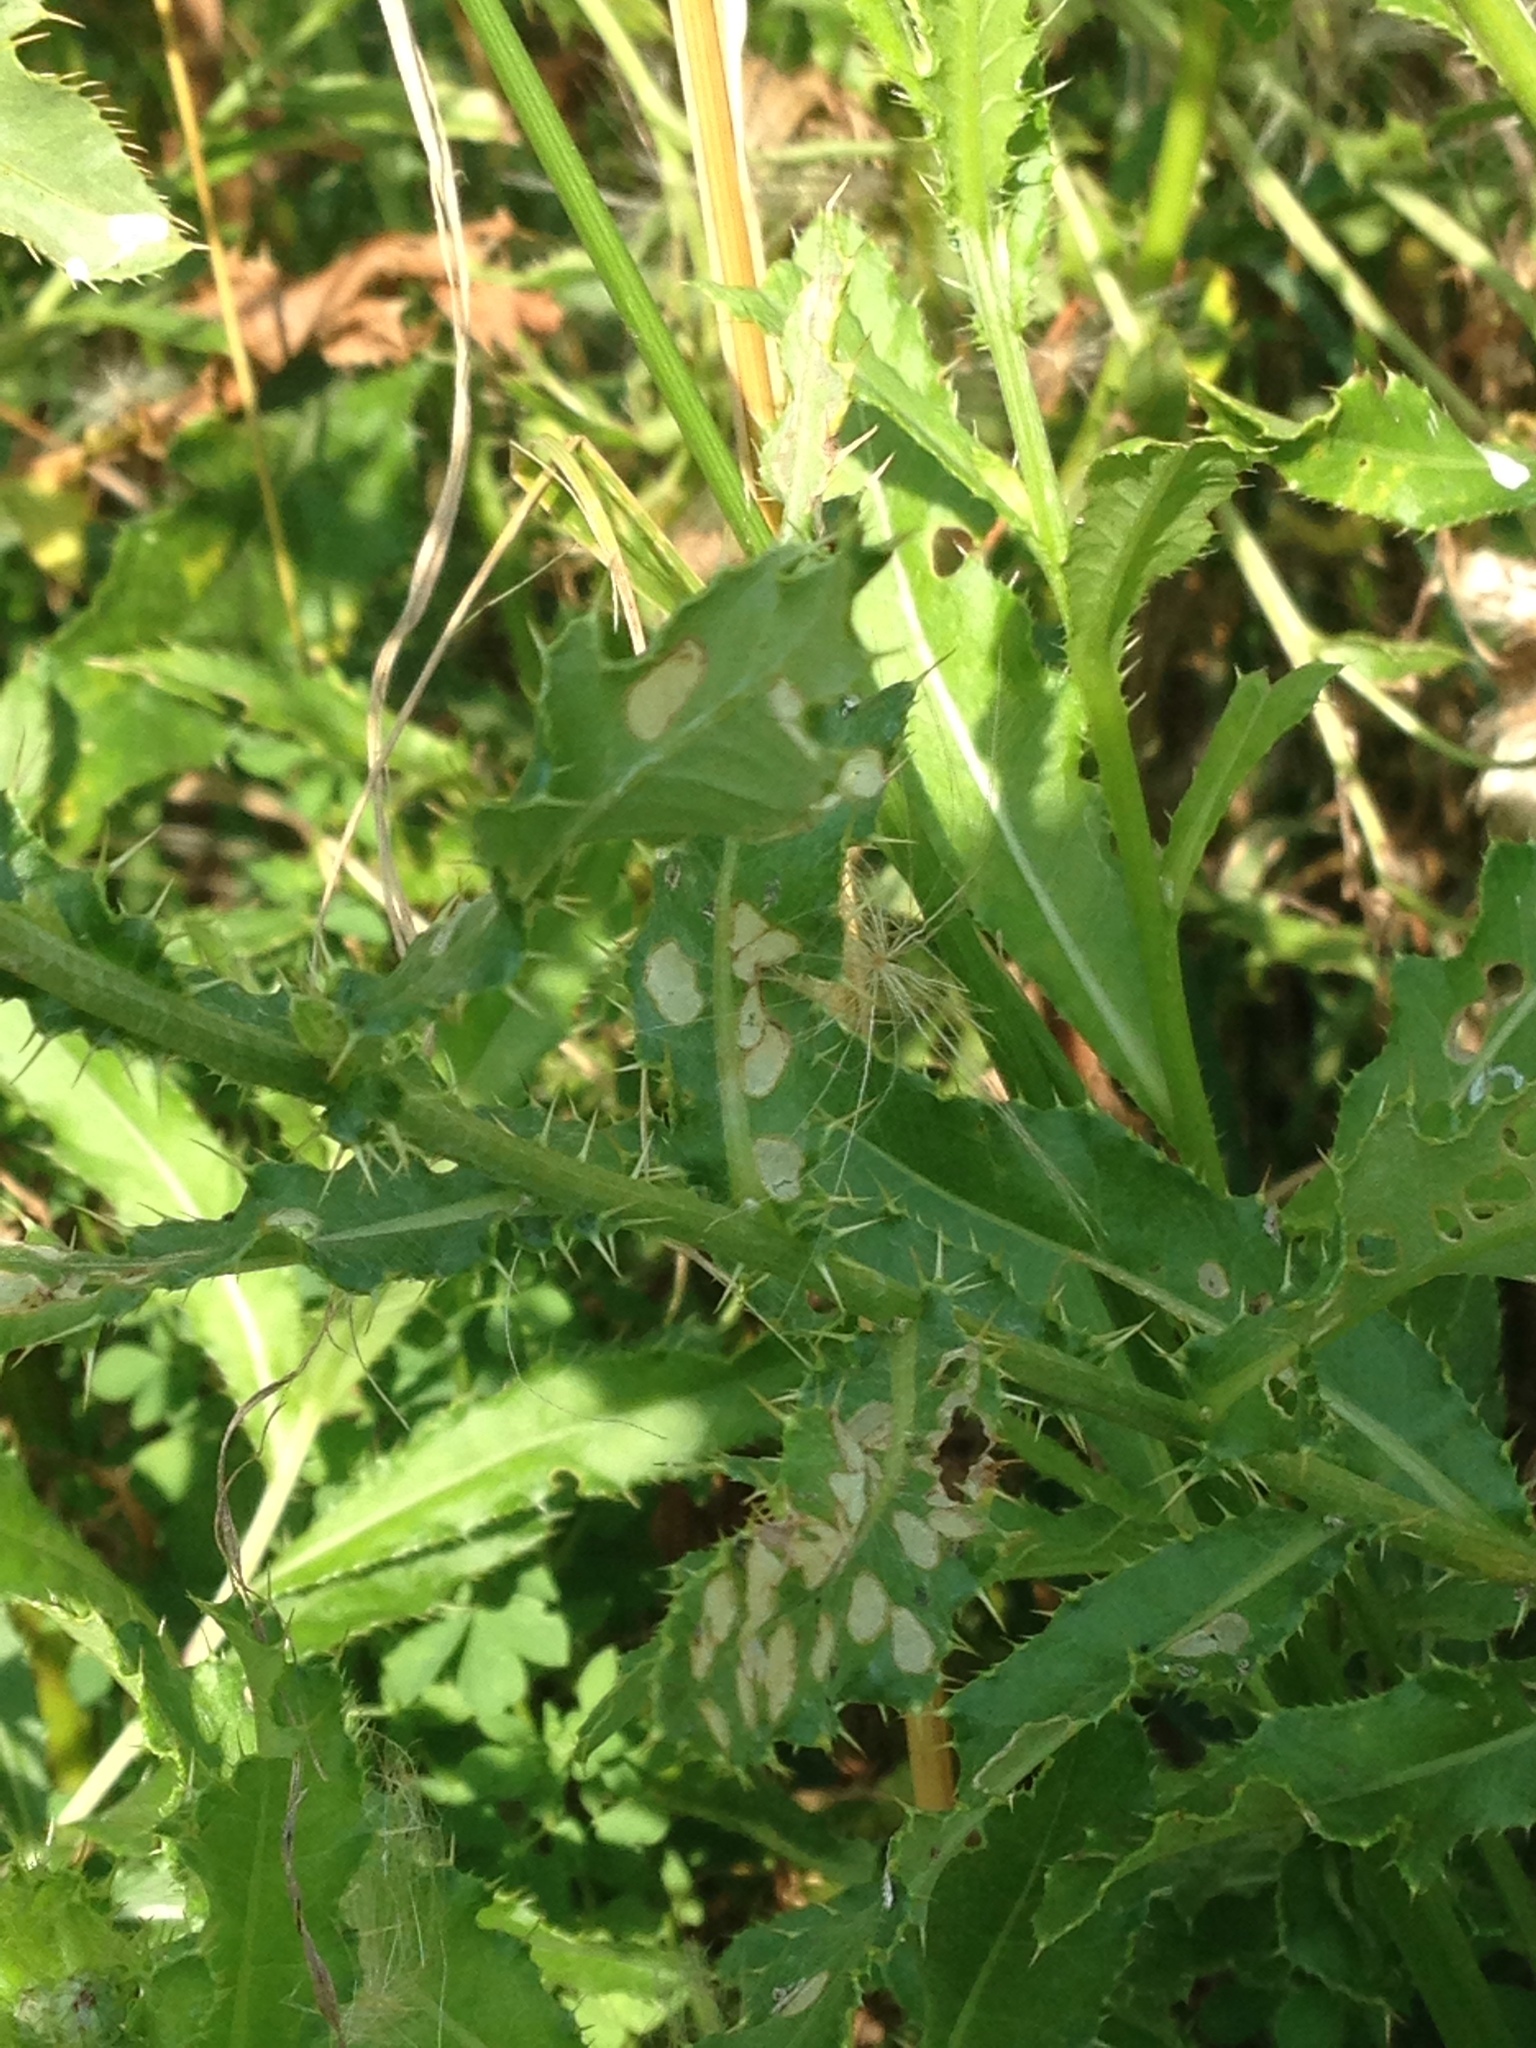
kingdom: Plantae
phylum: Tracheophyta
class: Magnoliopsida
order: Asterales
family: Asteraceae
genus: Cirsium
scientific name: Cirsium arvense
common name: Creeping thistle
